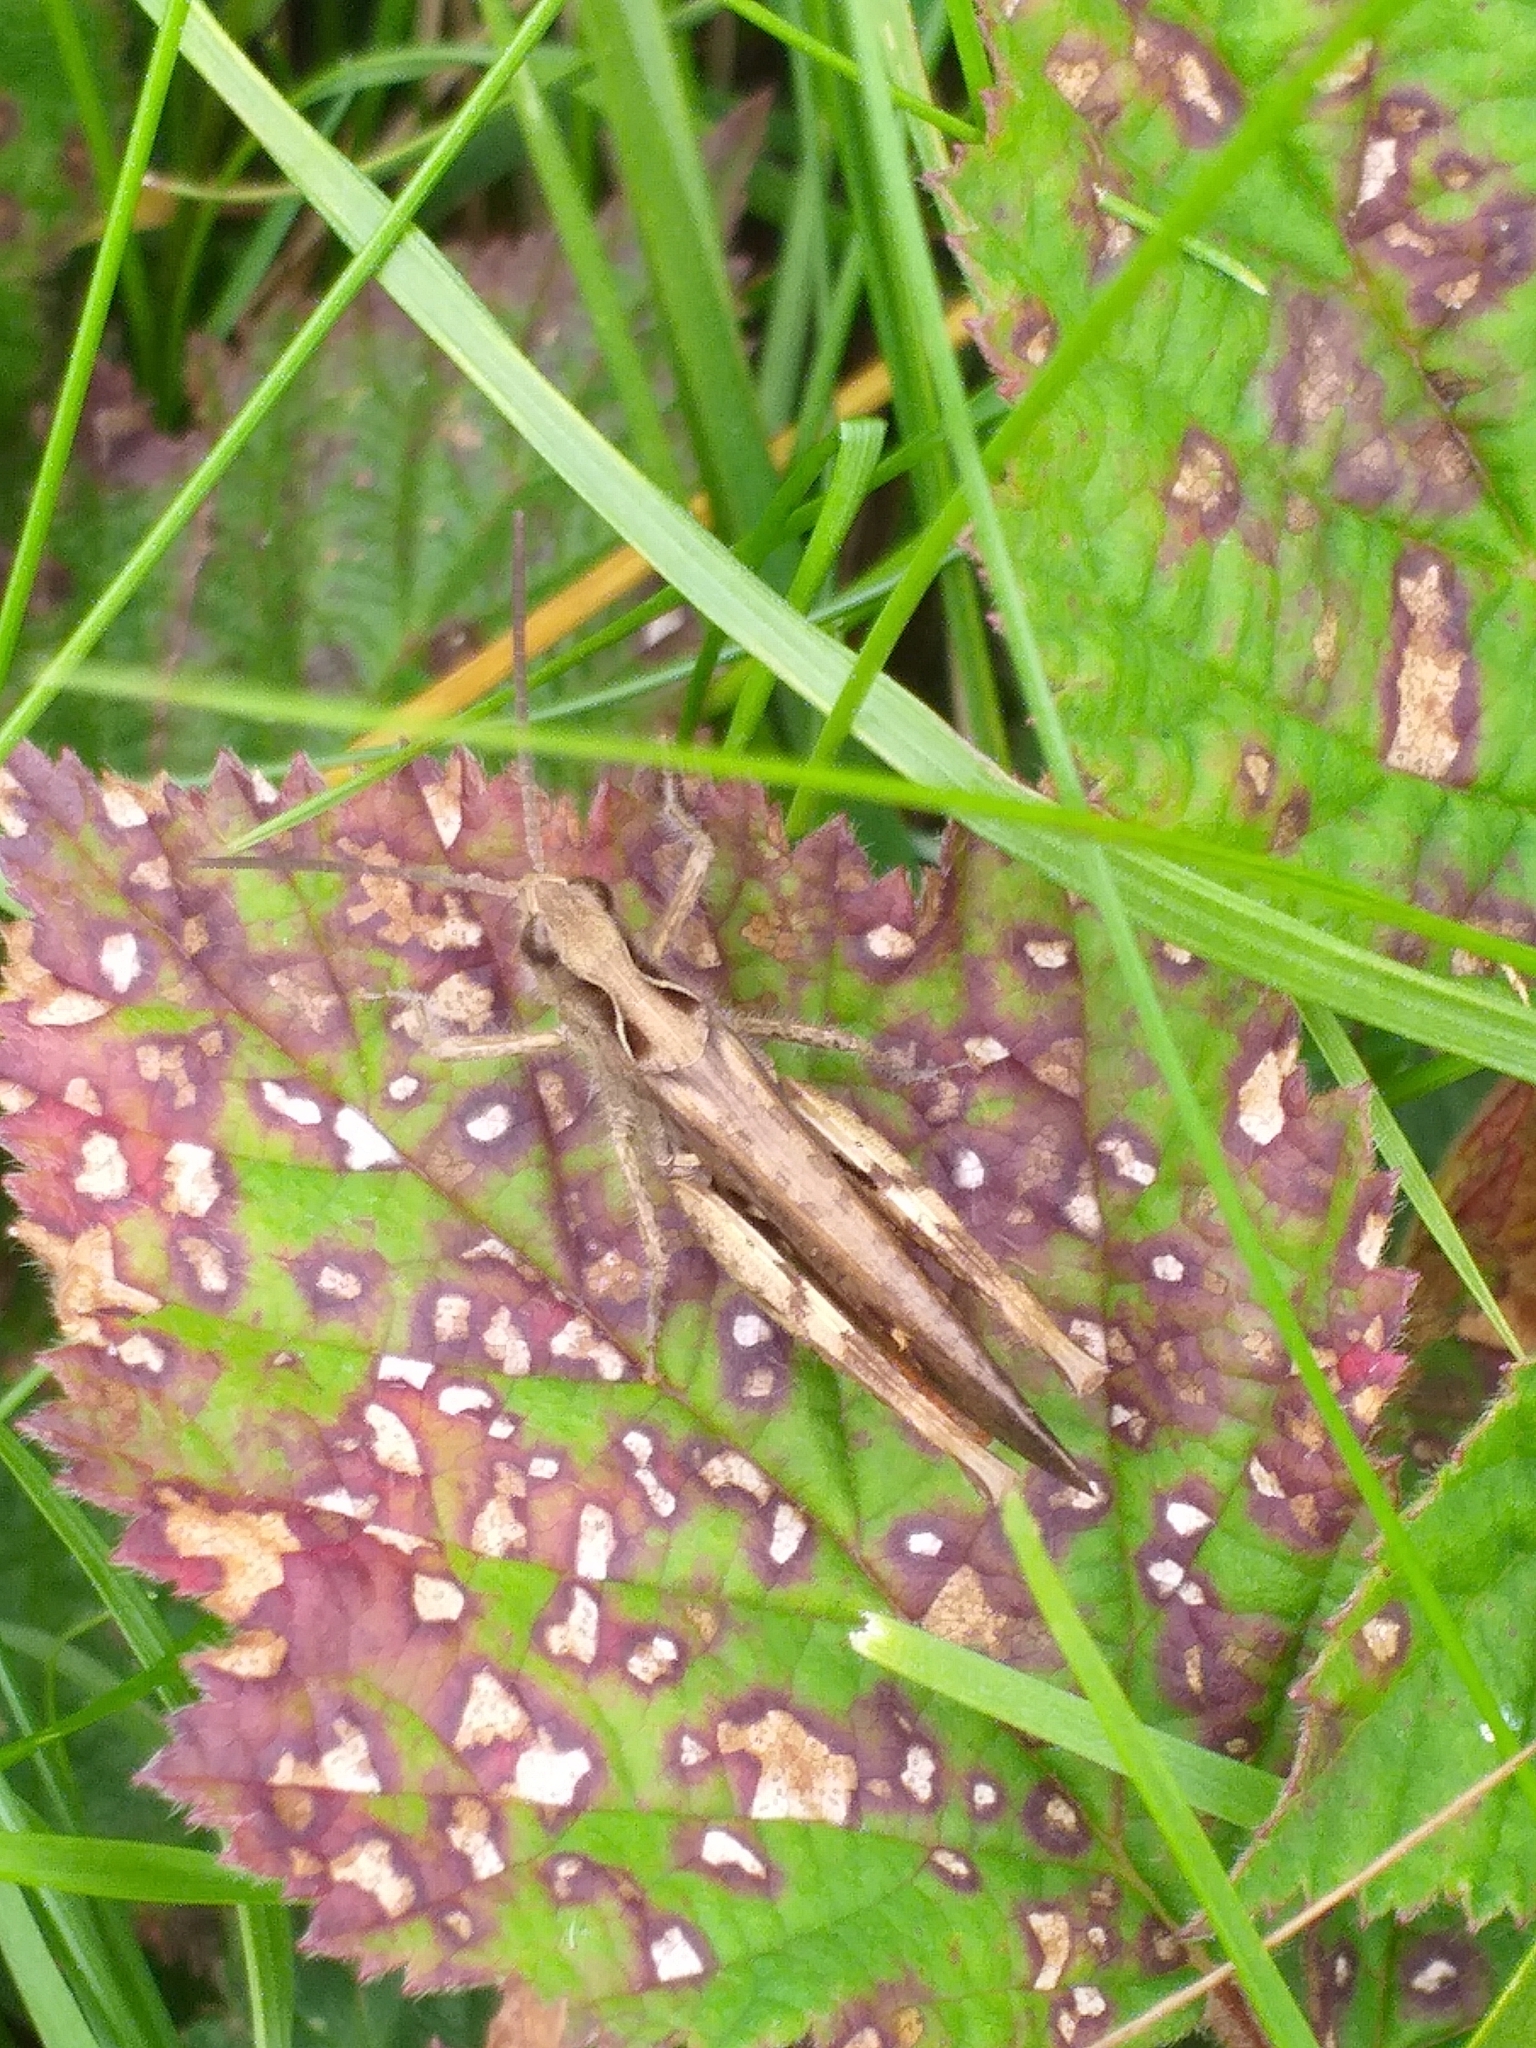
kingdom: Animalia
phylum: Arthropoda
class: Insecta
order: Orthoptera
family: Acrididae
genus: Chorthippus
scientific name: Chorthippus brunneus
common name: Field grasshopper
